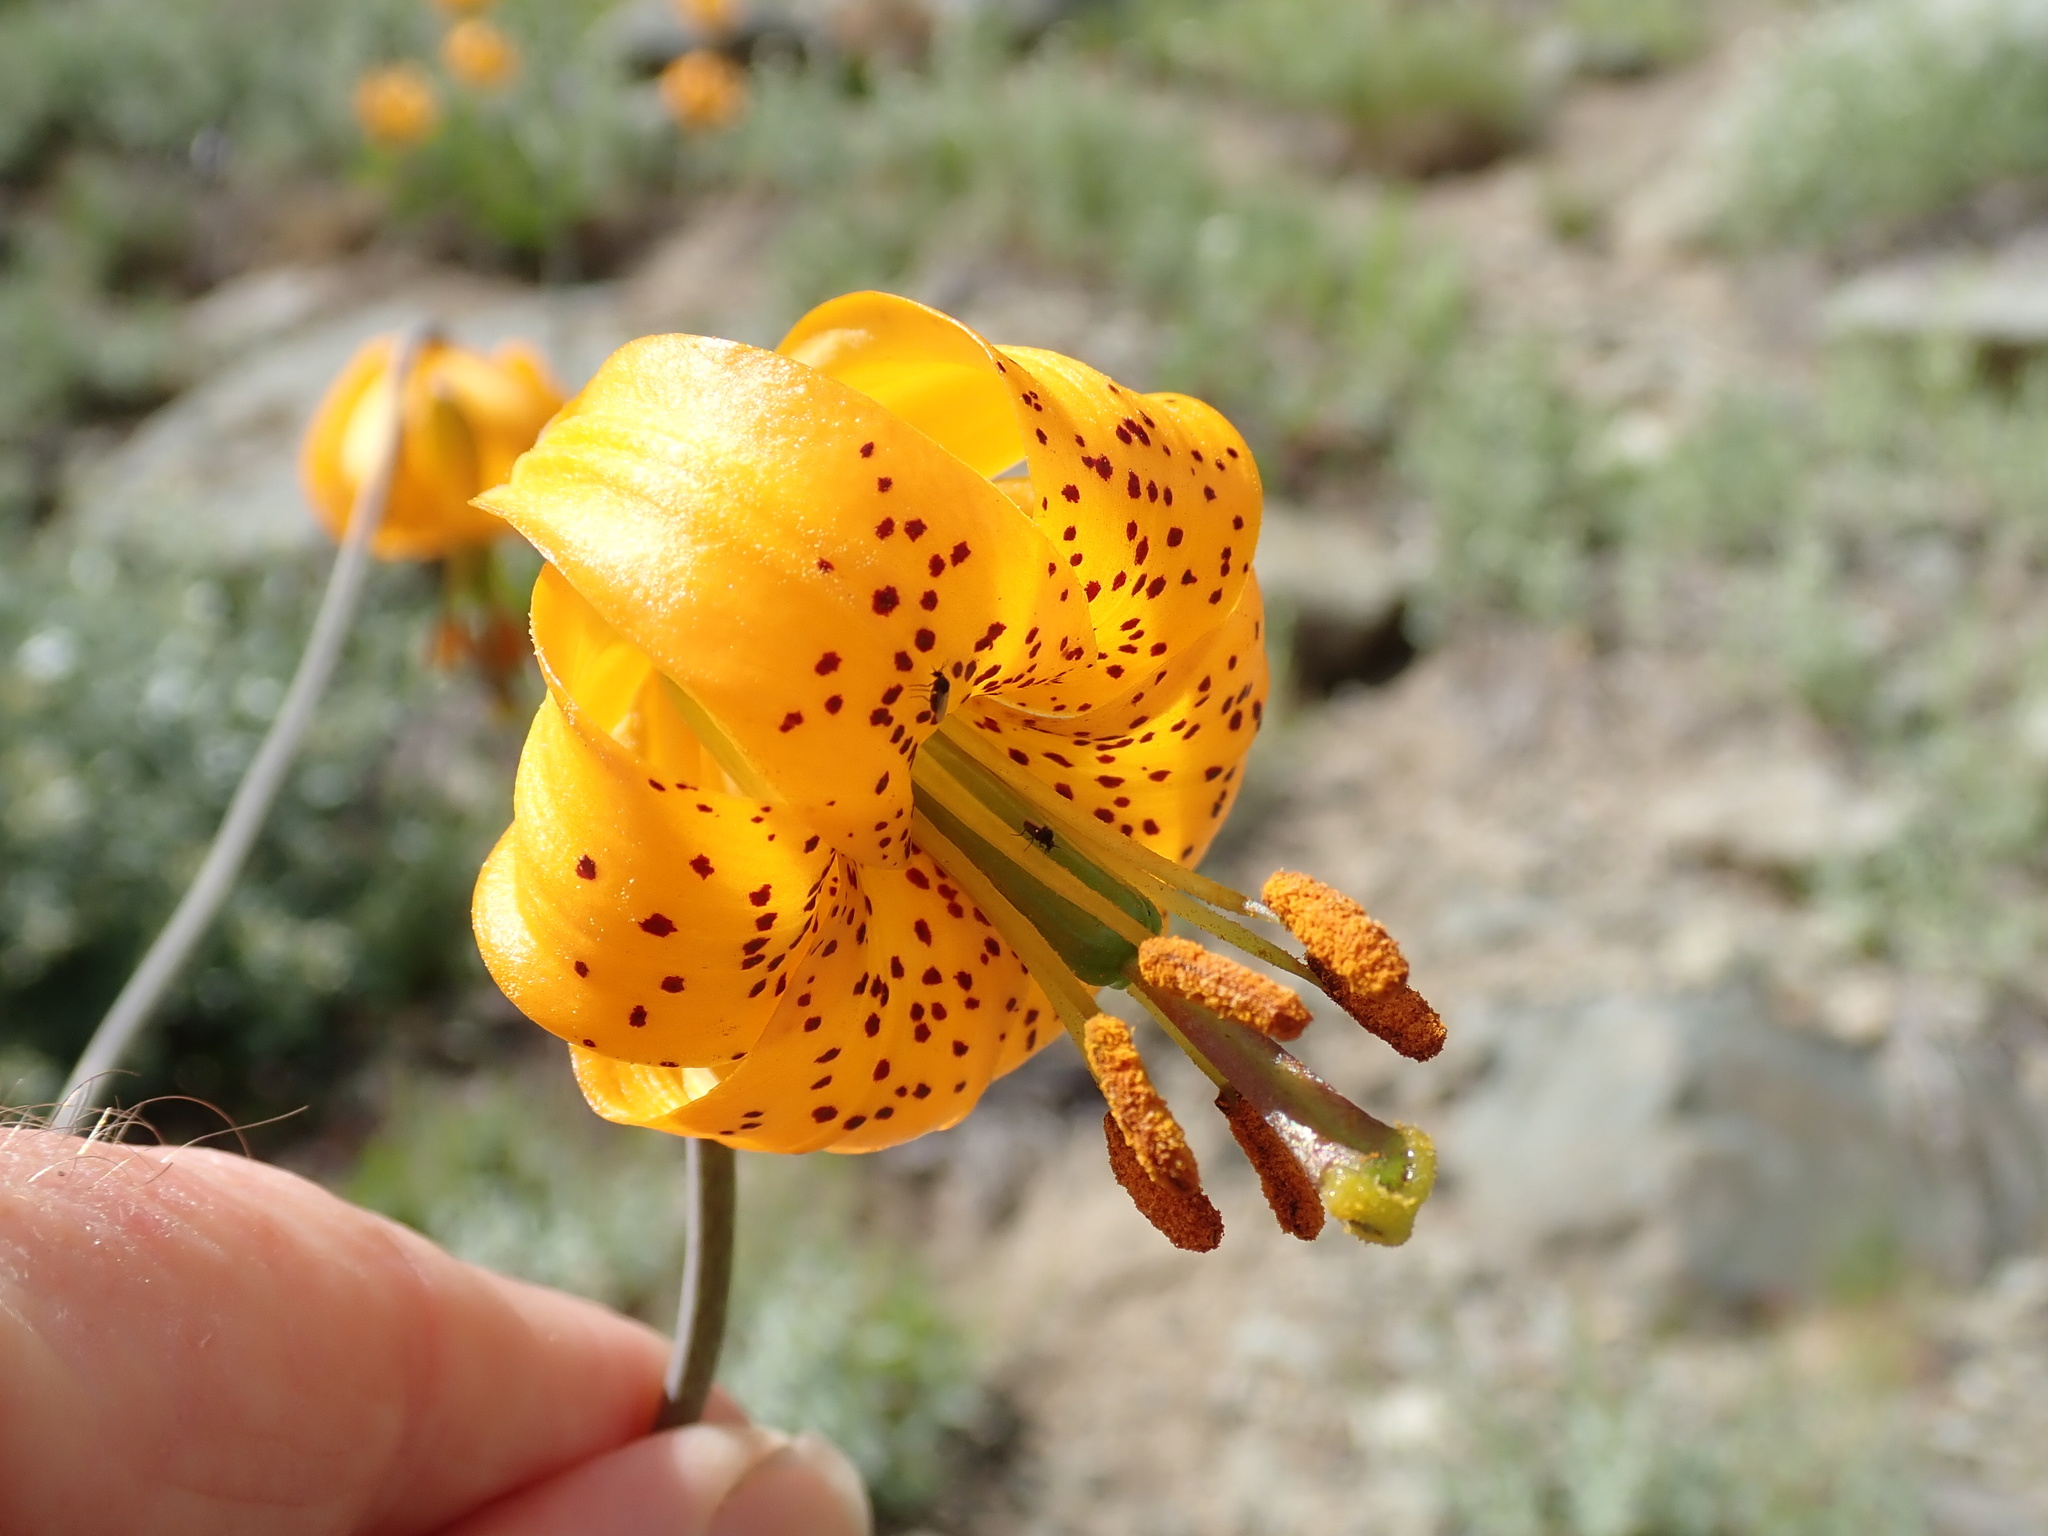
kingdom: Plantae
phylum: Tracheophyta
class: Liliopsida
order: Liliales
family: Liliaceae
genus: Lilium
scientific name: Lilium columbianum
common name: Columbia lily
